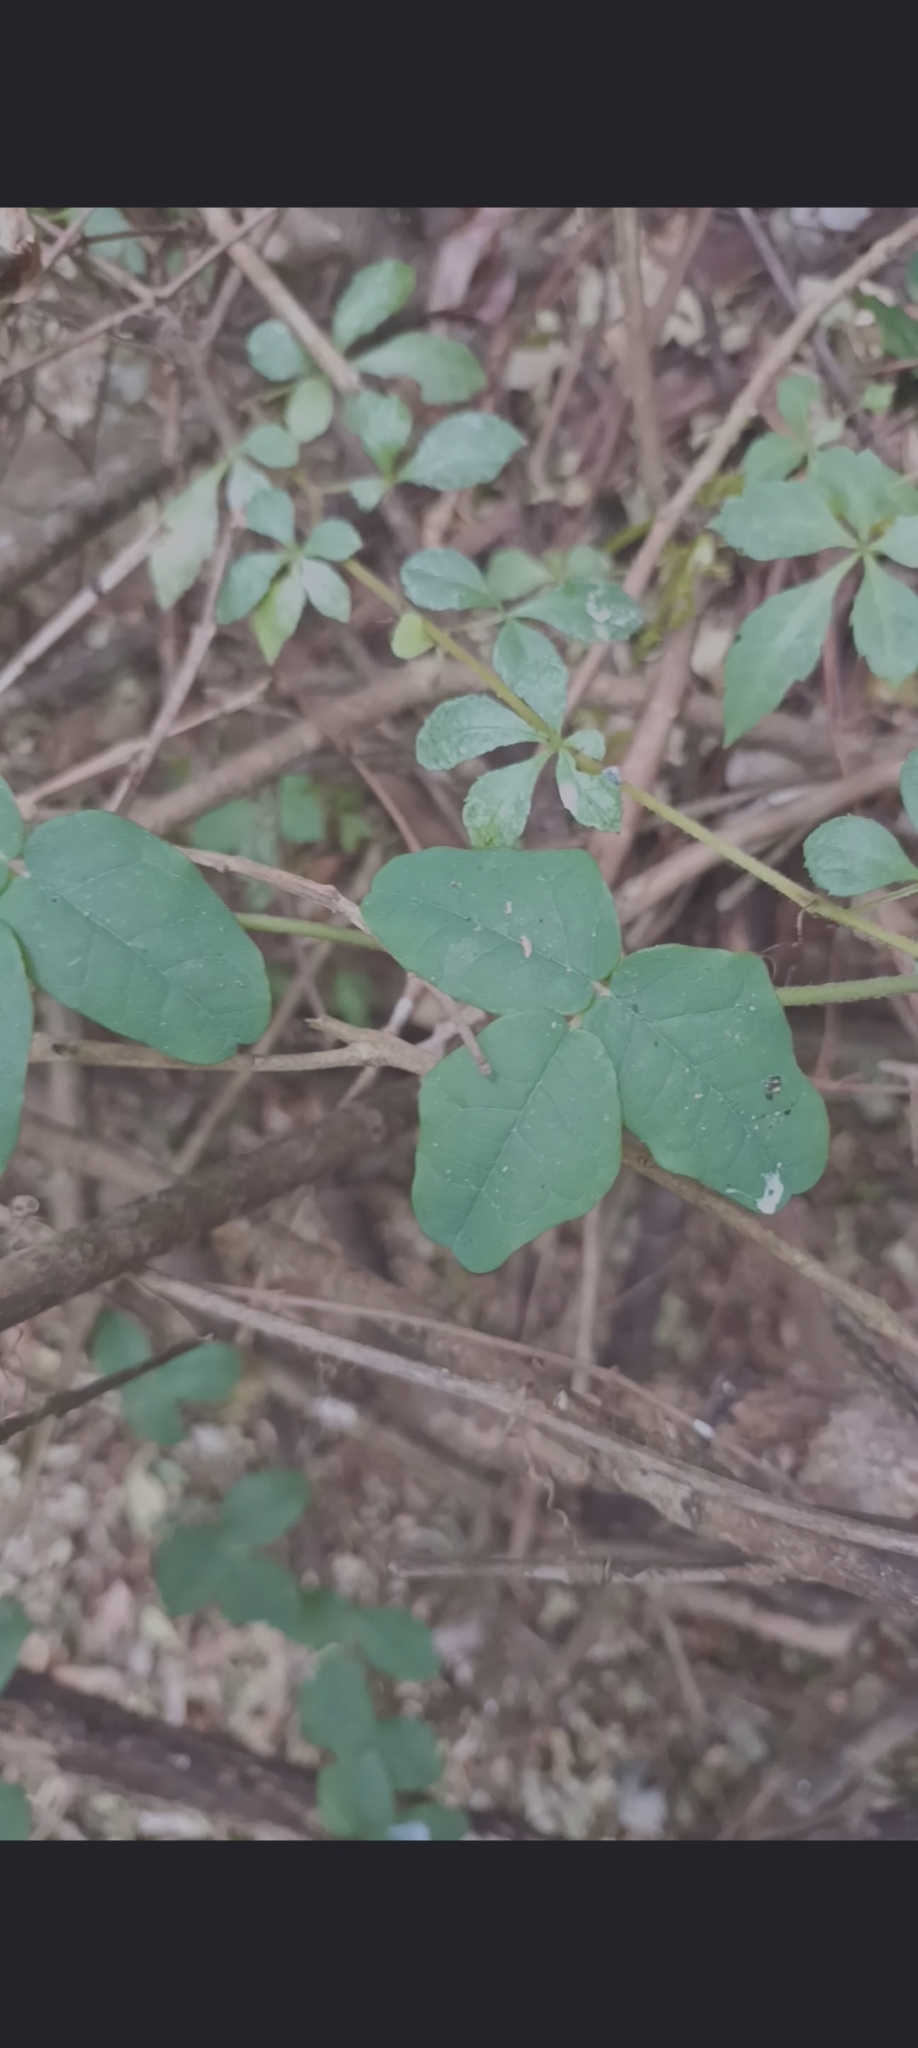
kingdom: Plantae
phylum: Tracheophyta
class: Magnoliopsida
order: Ranunculales
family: Lardizabalaceae
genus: Boquila
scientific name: Boquila trifoliolata
